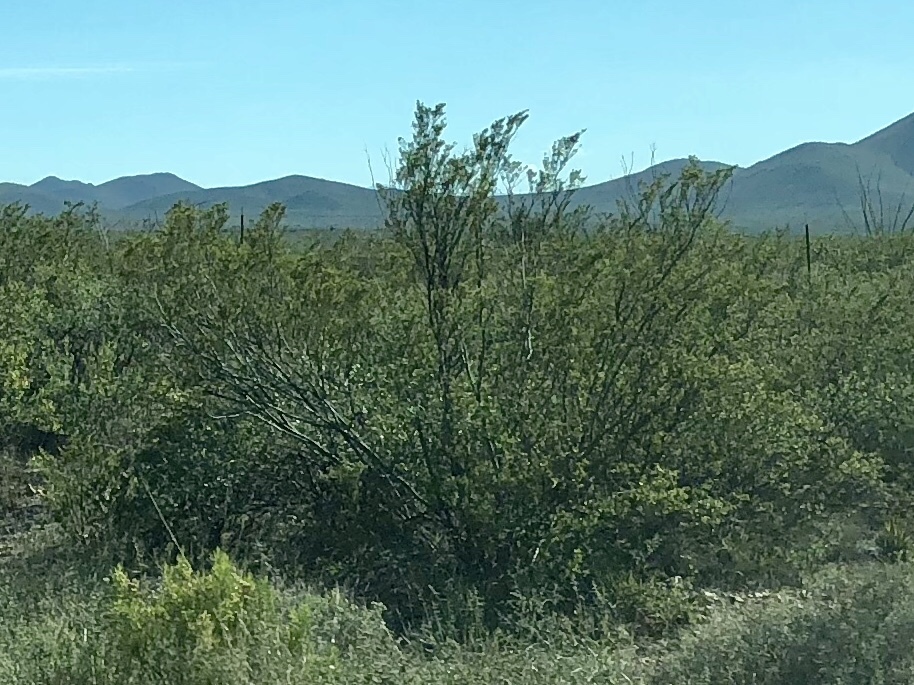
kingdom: Plantae
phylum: Tracheophyta
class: Magnoliopsida
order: Zygophyllales
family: Zygophyllaceae
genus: Larrea
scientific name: Larrea tridentata
